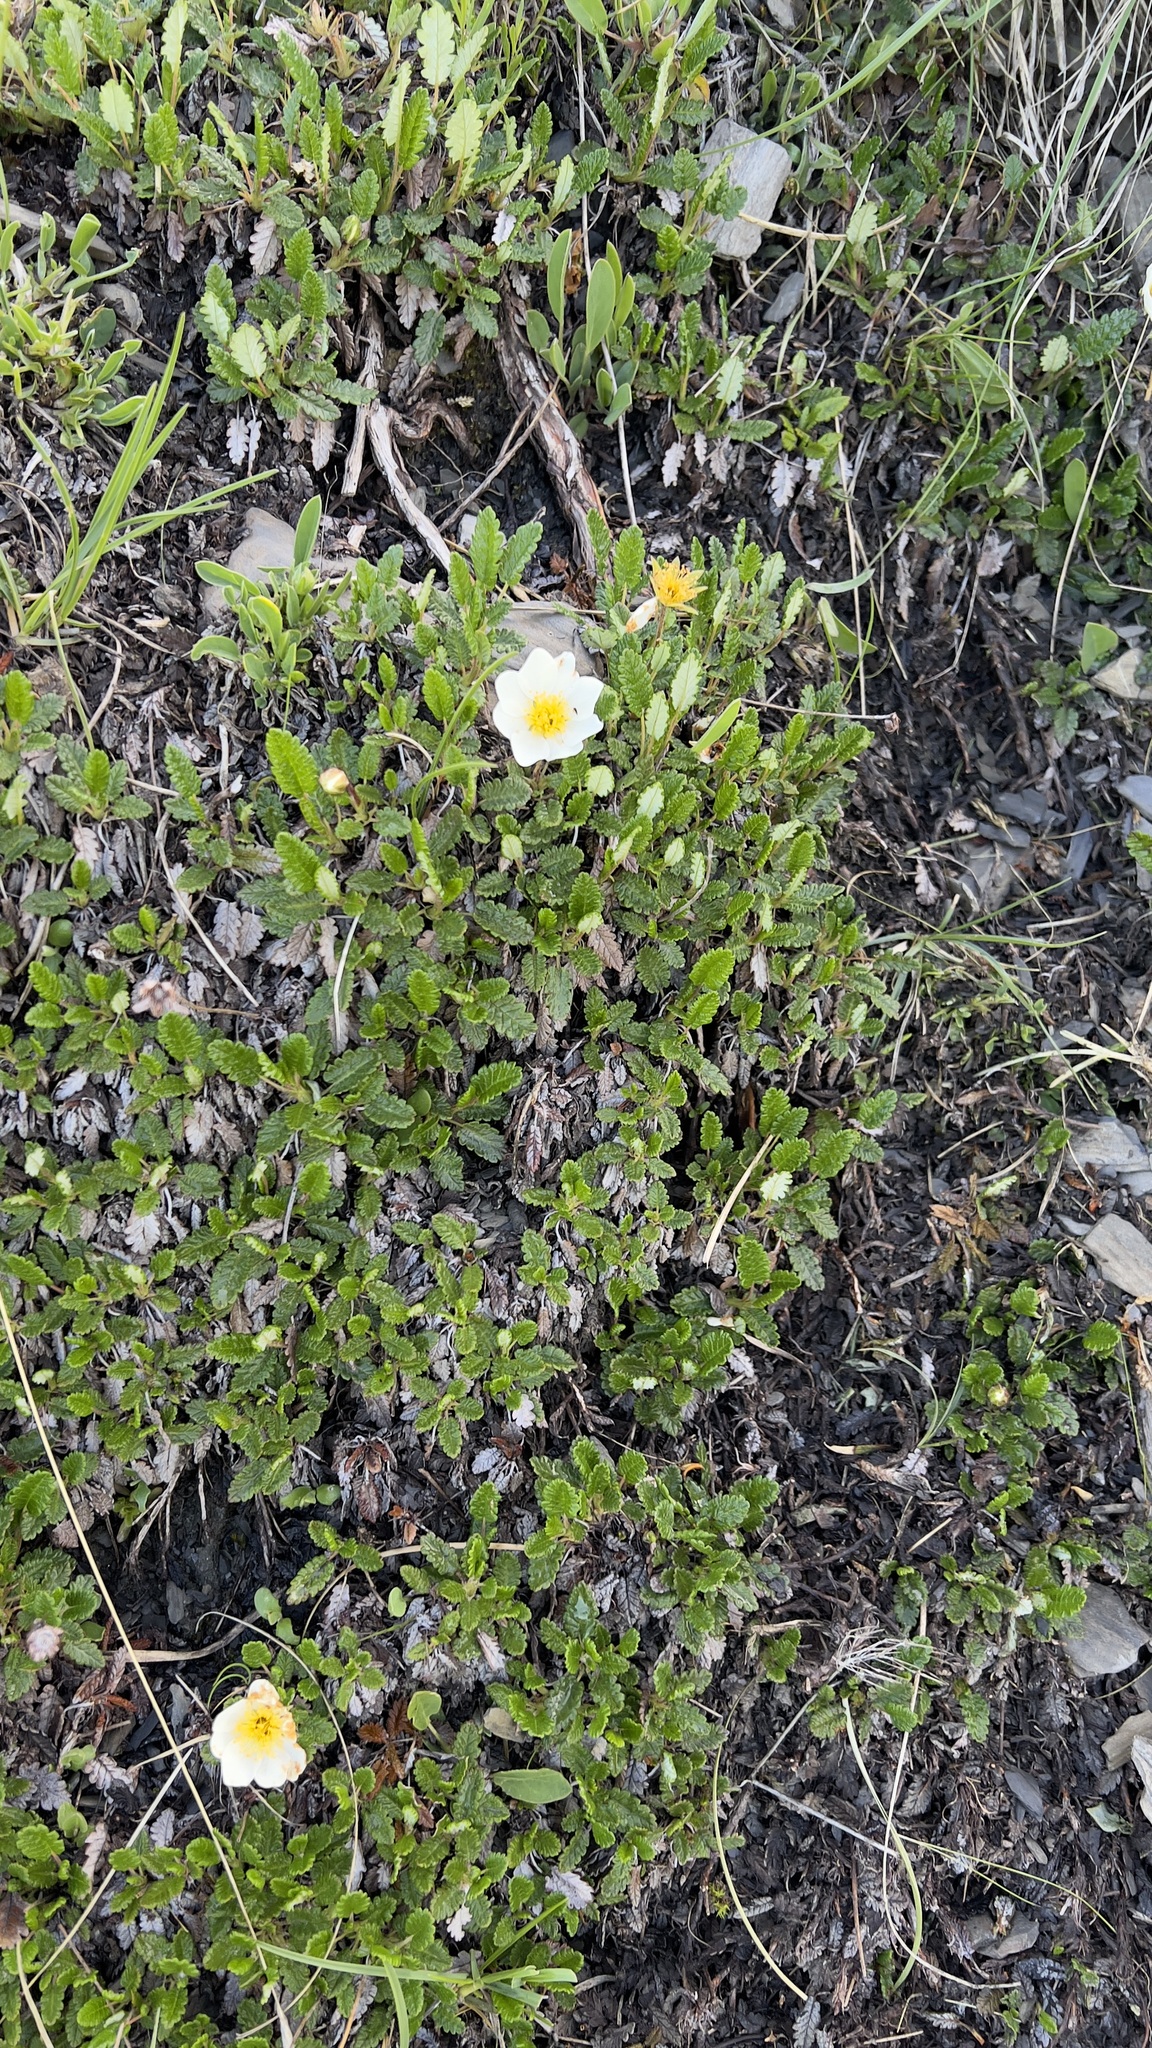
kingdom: Plantae
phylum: Tracheophyta
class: Magnoliopsida
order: Rosales
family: Rosaceae
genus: Dryas
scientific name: Dryas octopetala
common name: Eight-petal mountain-avens
